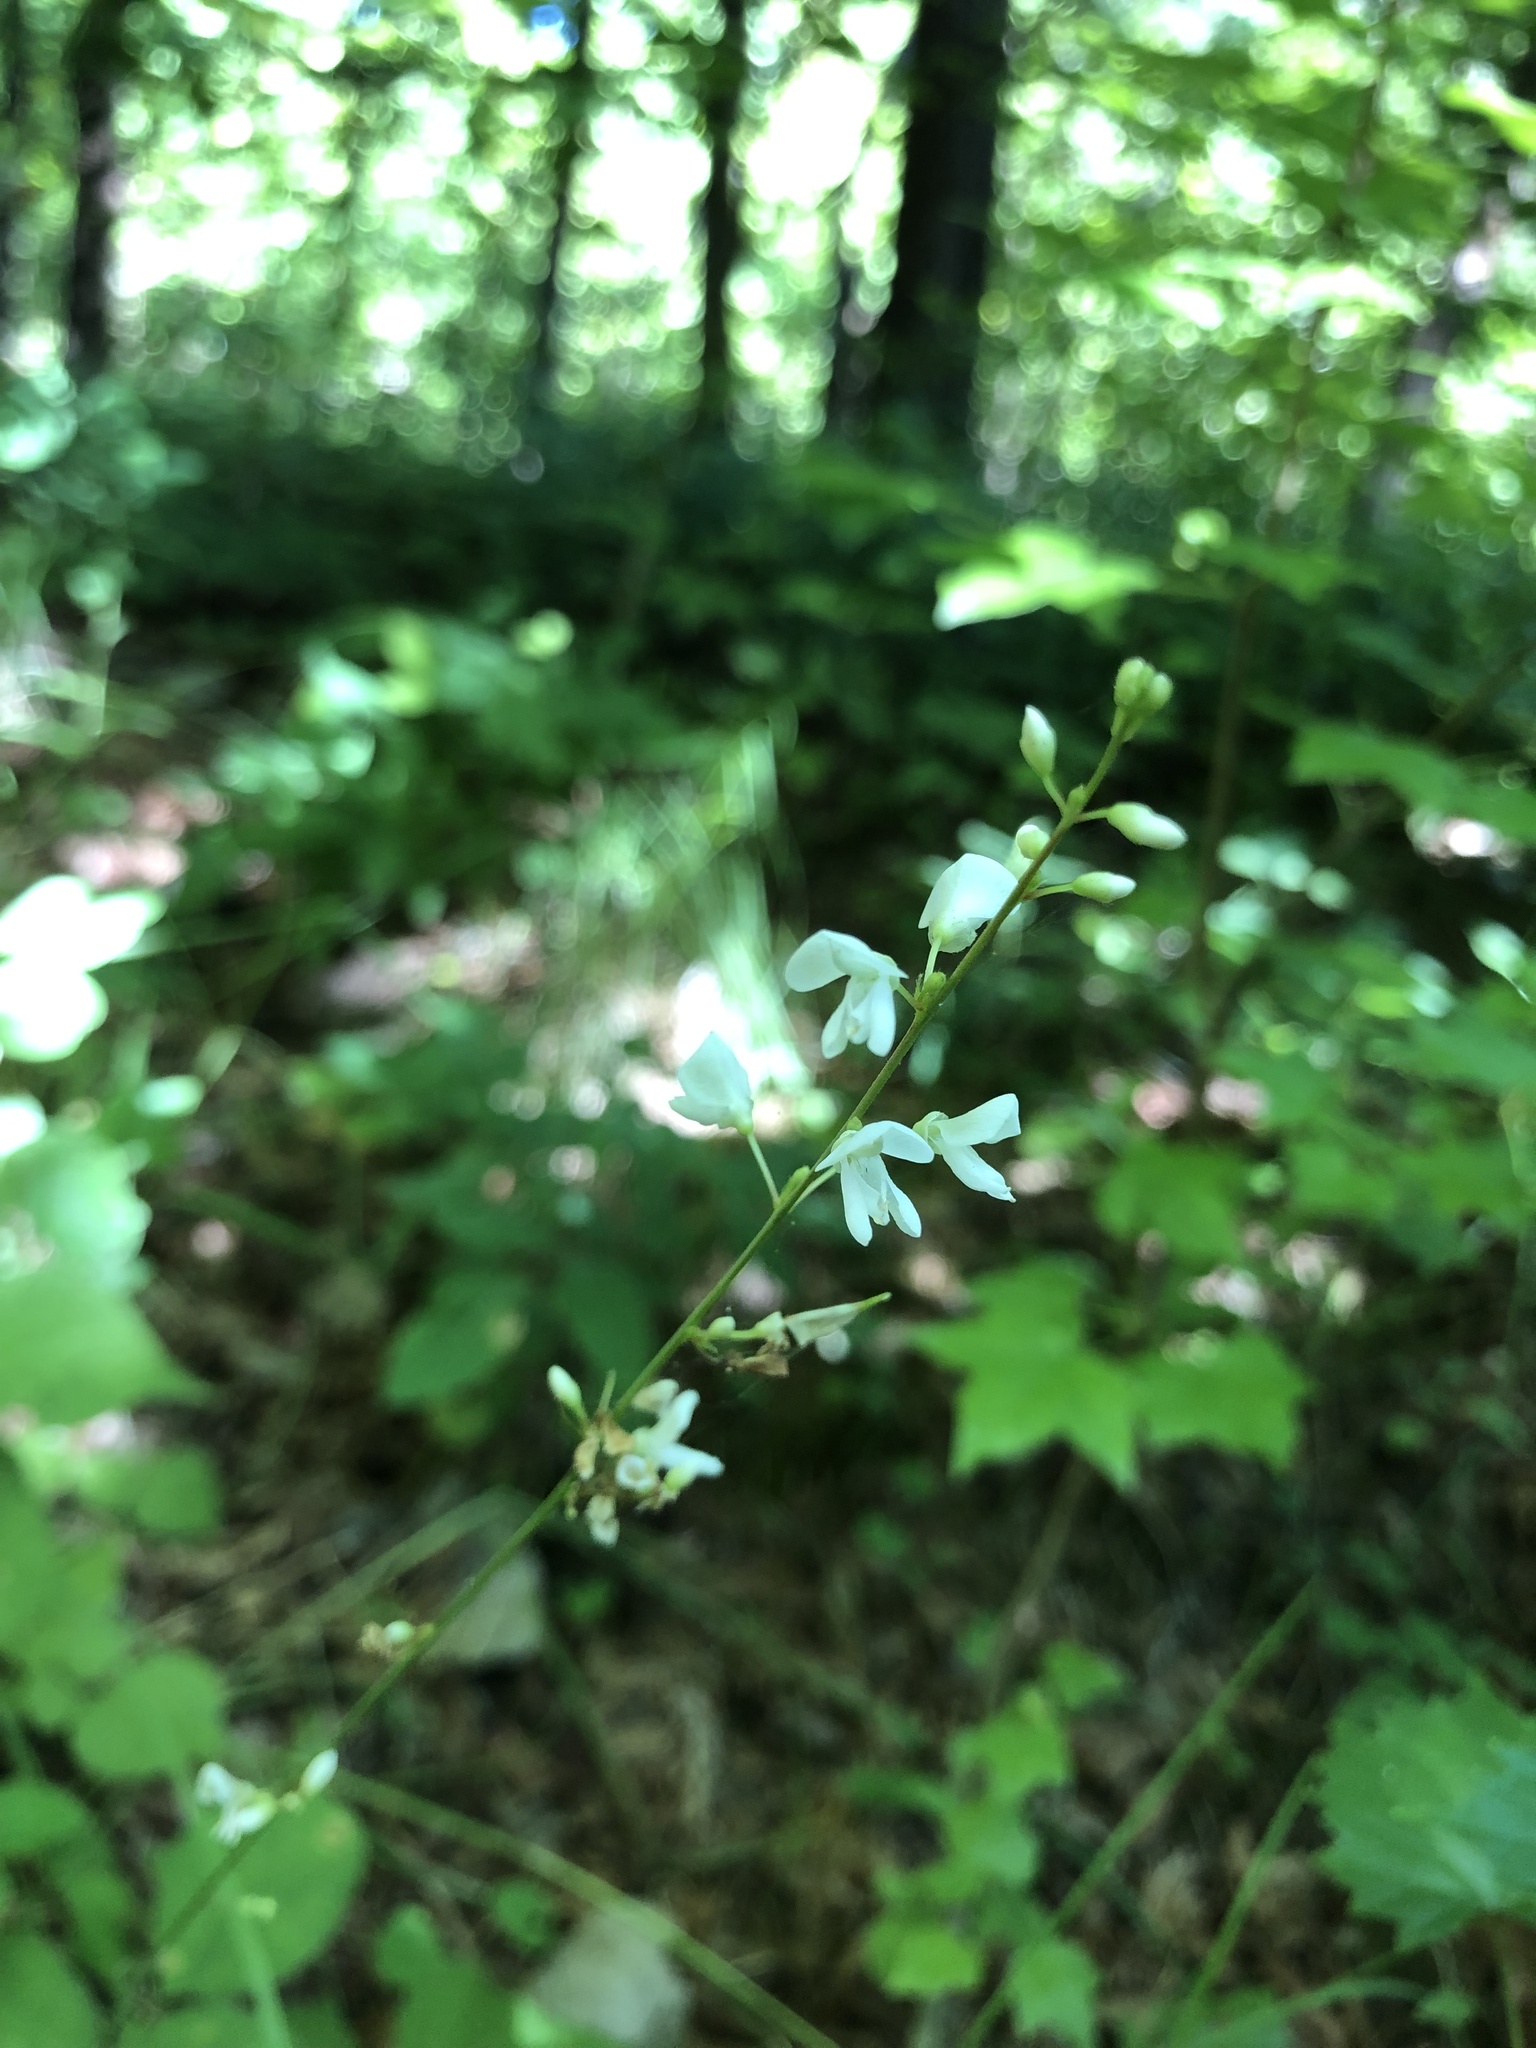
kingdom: Plantae
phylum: Tracheophyta
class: Magnoliopsida
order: Fabales
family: Fabaceae
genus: Hylodesmum
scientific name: Hylodesmum glutinosum
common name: Clustered-leaved tick-trefoil
